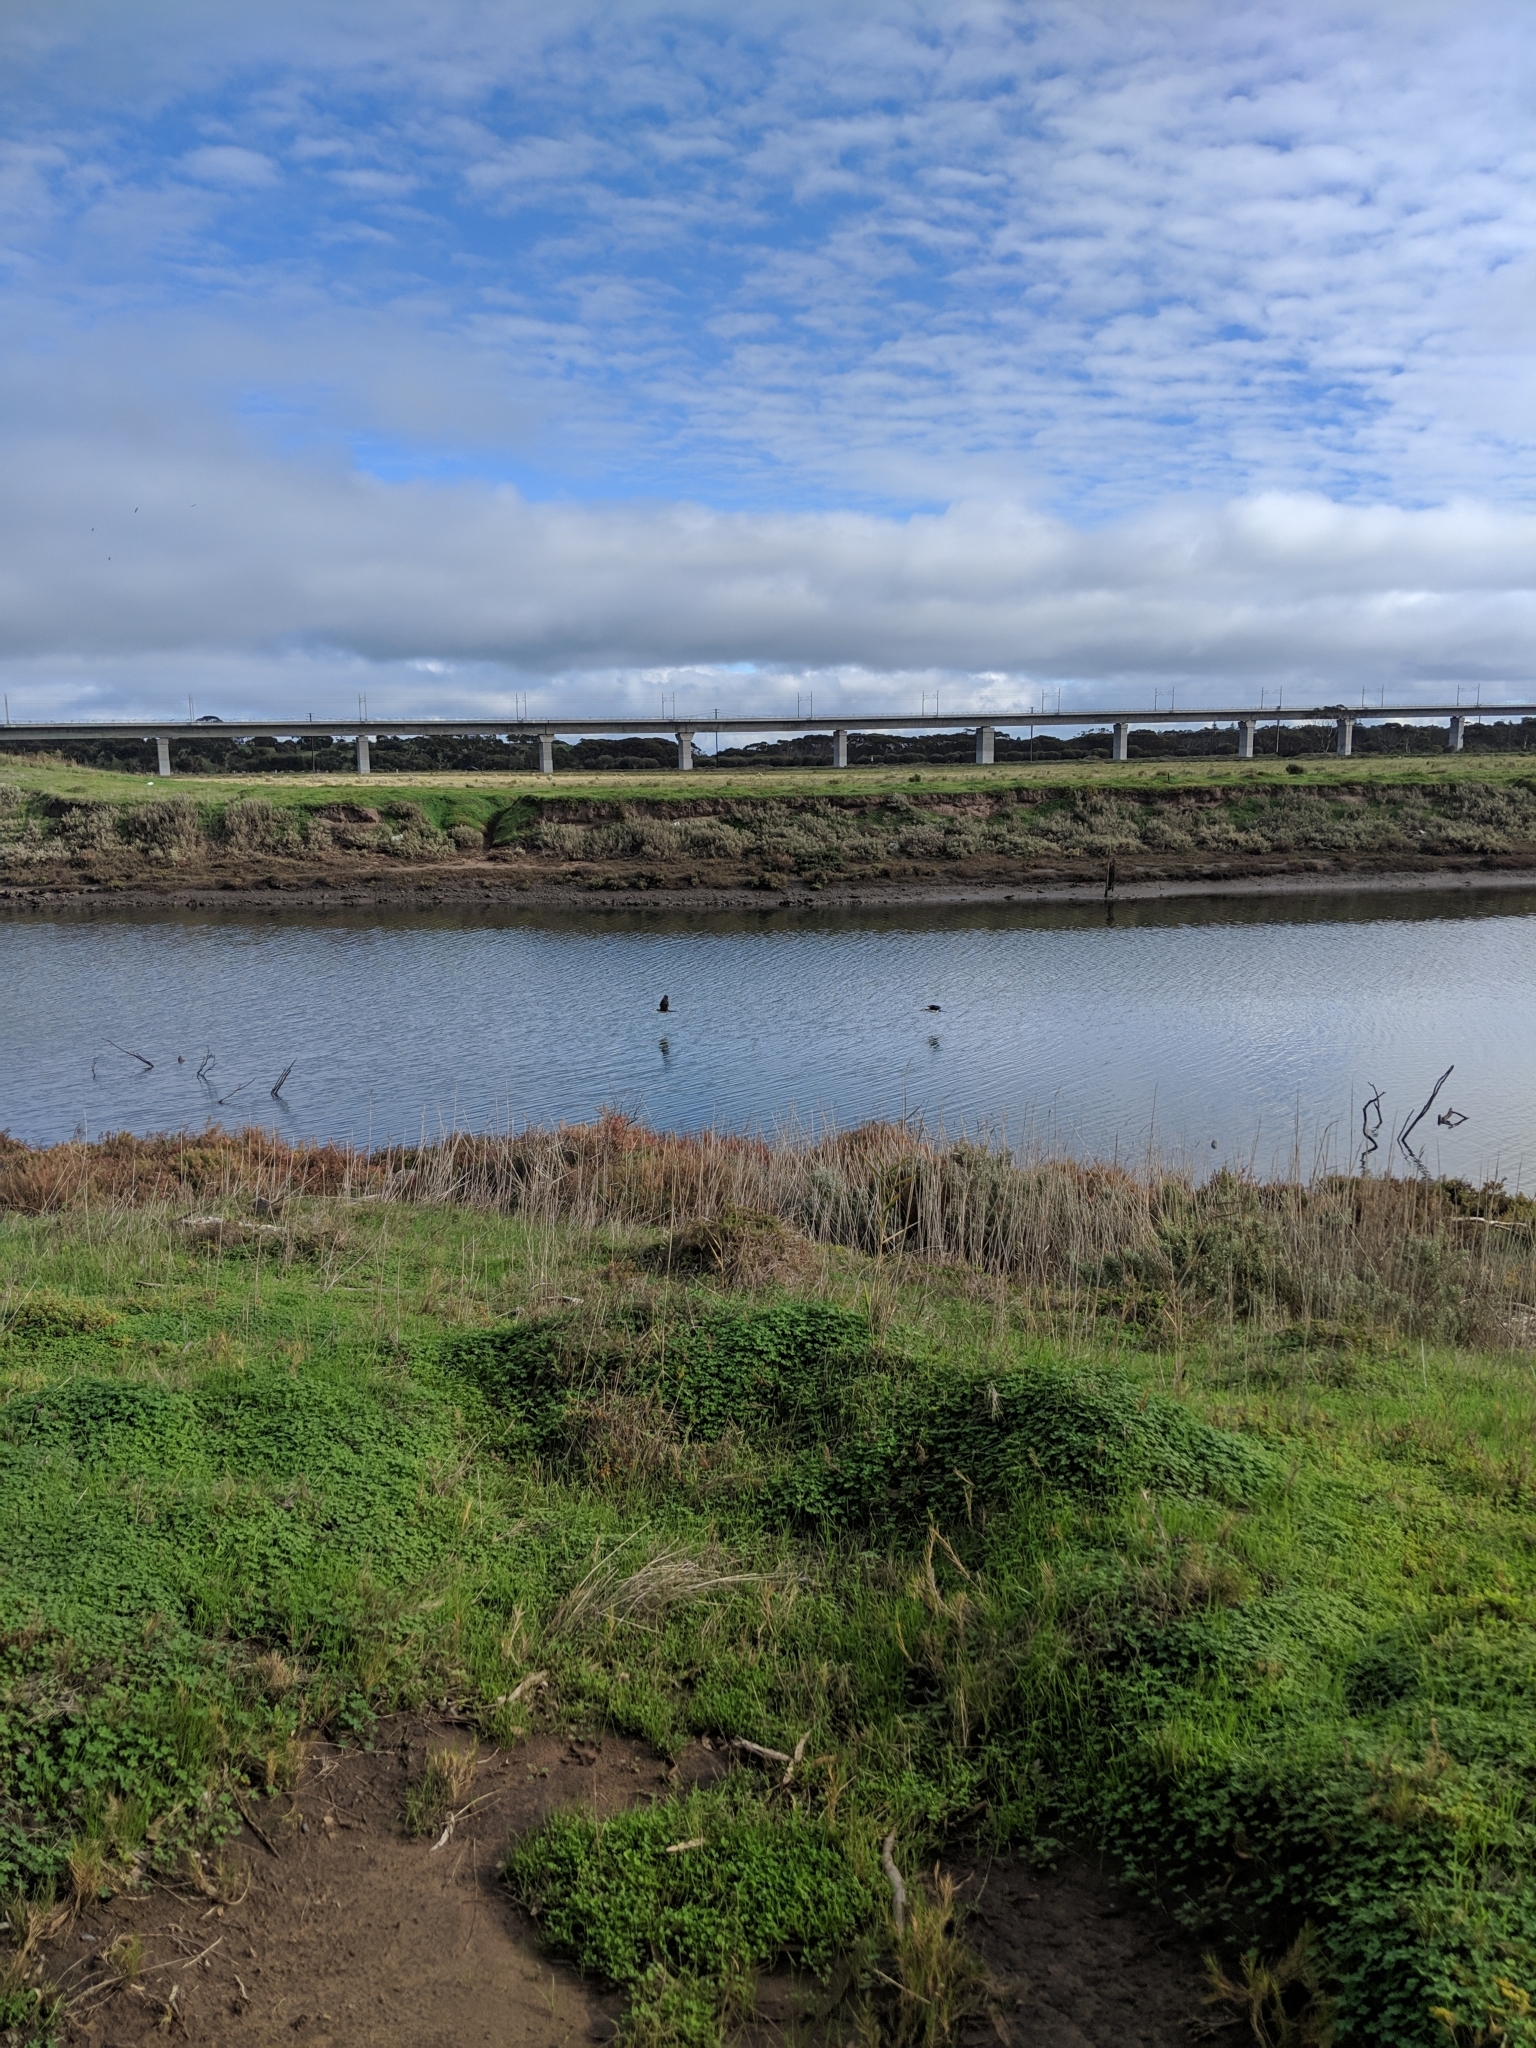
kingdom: Animalia
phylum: Chordata
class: Aves
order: Suliformes
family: Phalacrocoracidae
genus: Microcarbo
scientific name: Microcarbo melanoleucos
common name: Little pied cormorant
